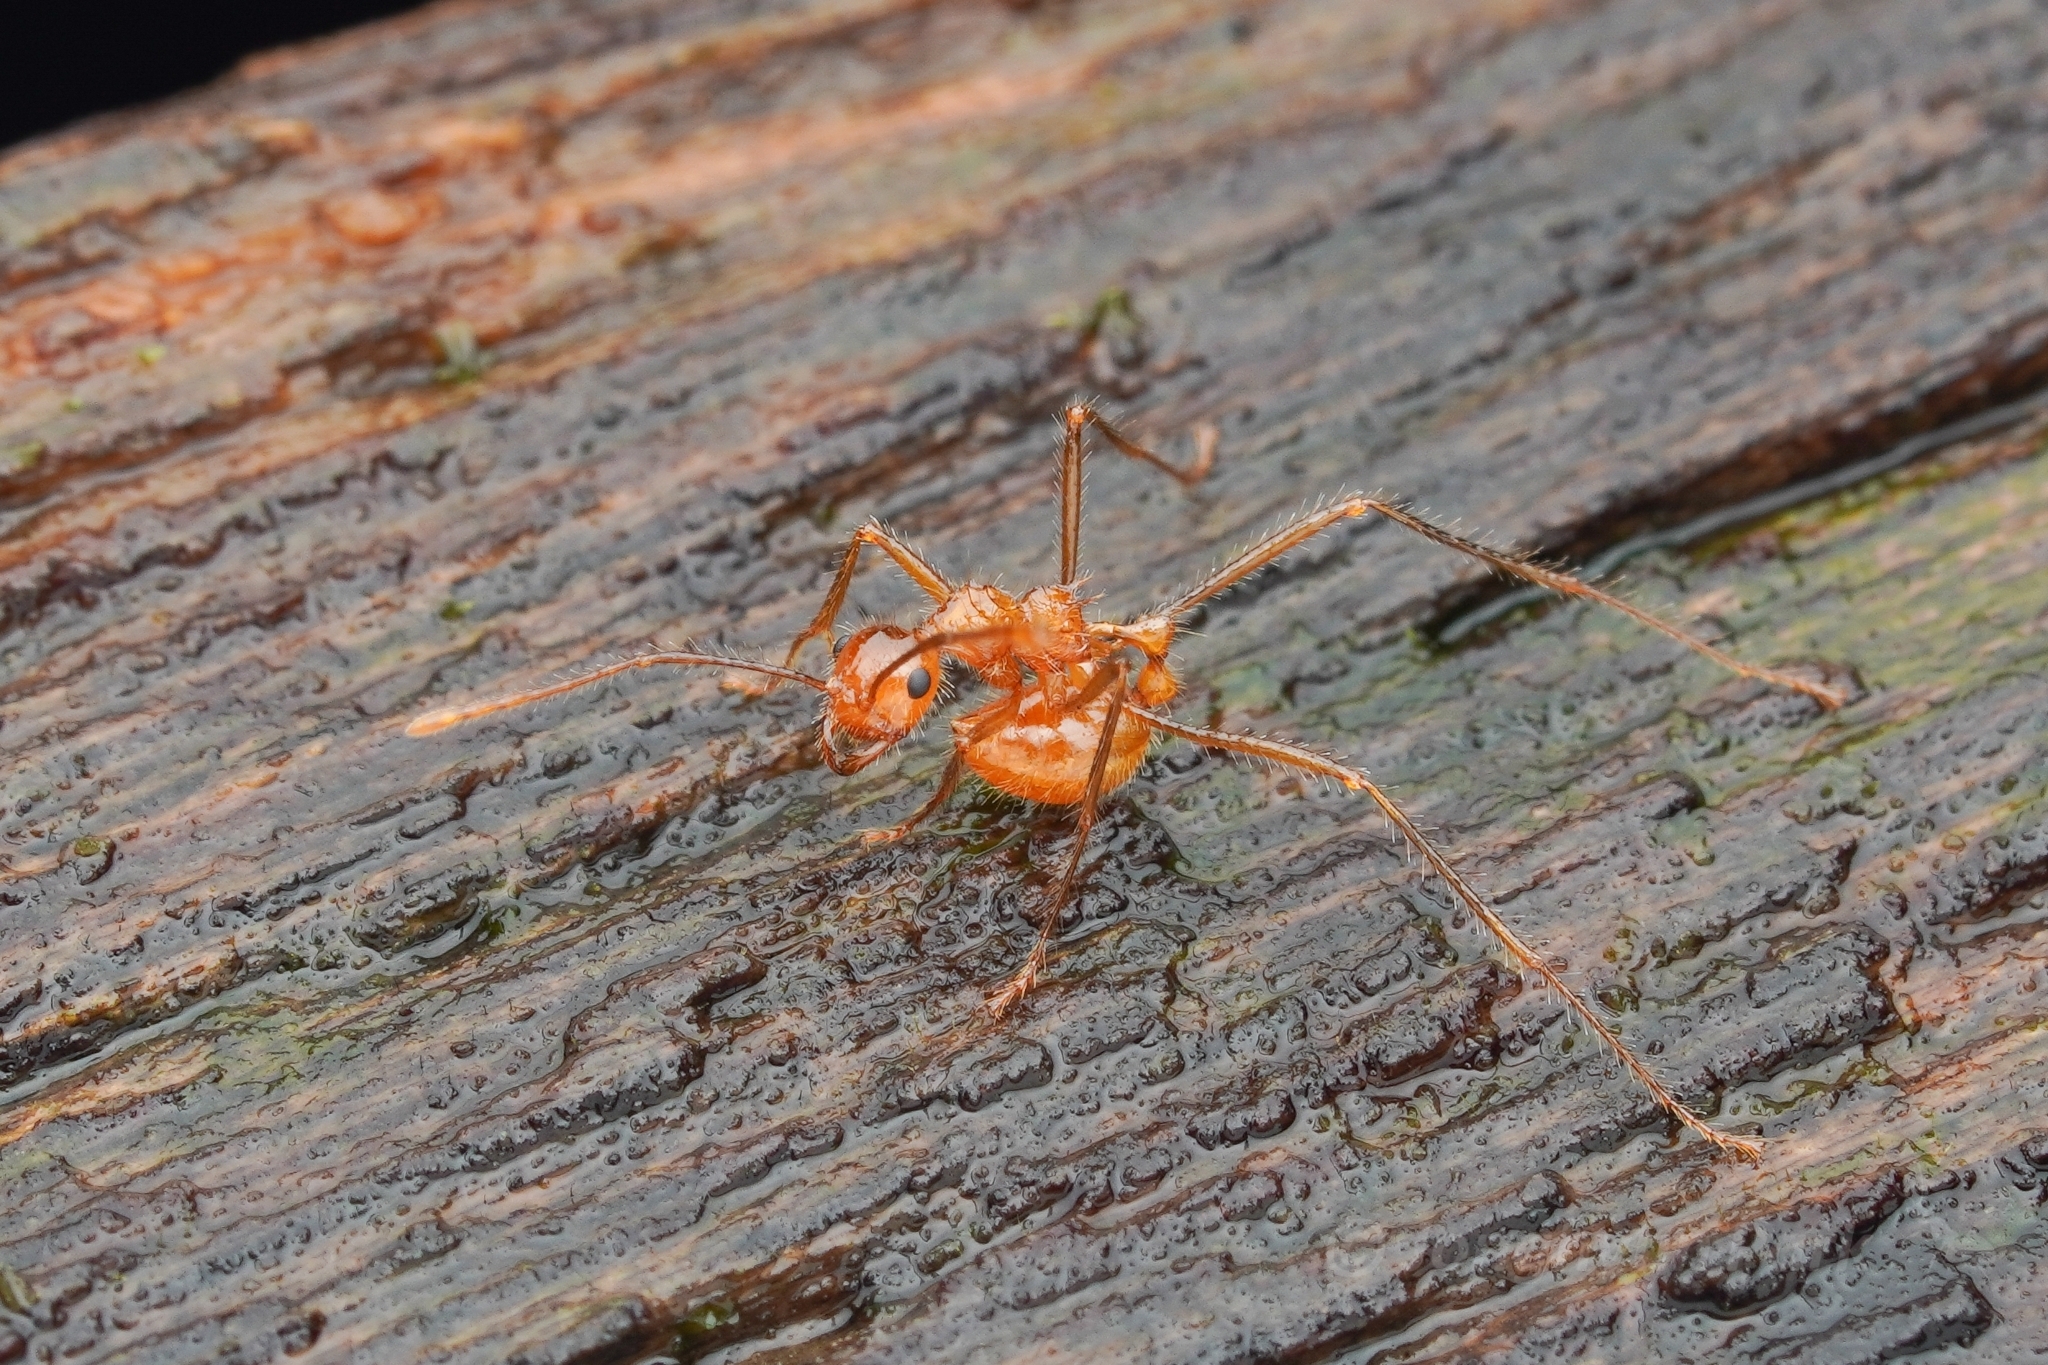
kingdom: Animalia
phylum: Arthropoda
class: Insecta
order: Hymenoptera
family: Formicidae
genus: Myrmicaria
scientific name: Myrmicaria
